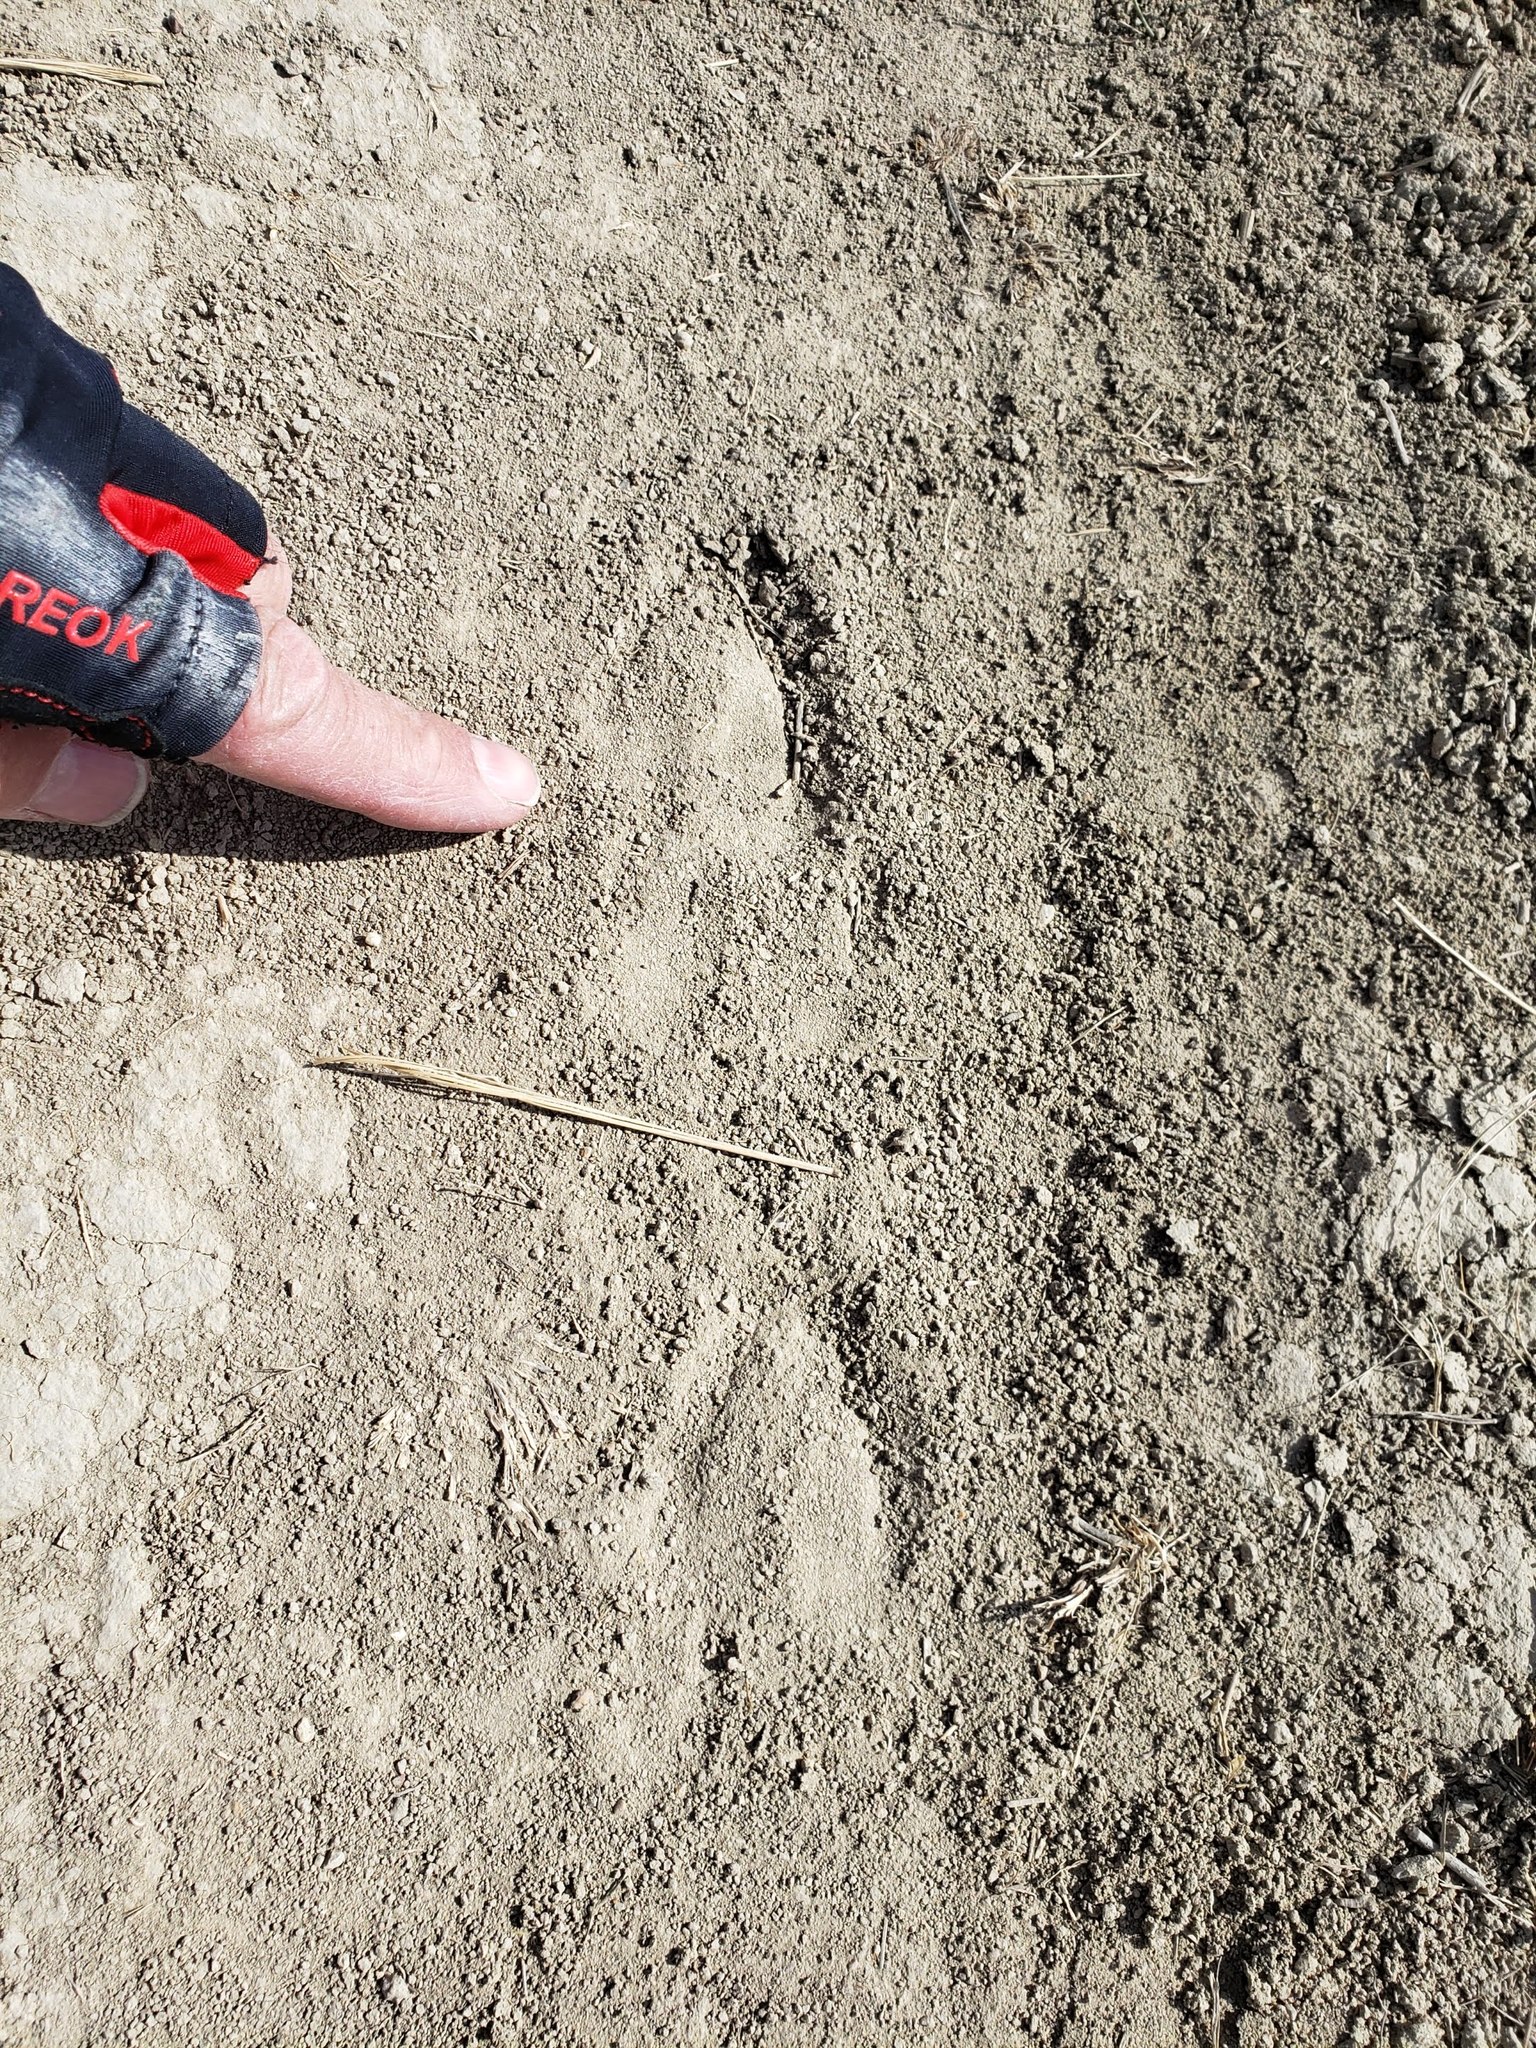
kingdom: Animalia
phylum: Chordata
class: Mammalia
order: Artiodactyla
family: Antilocapridae
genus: Antilocapra
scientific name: Antilocapra americana
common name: Pronghorn
